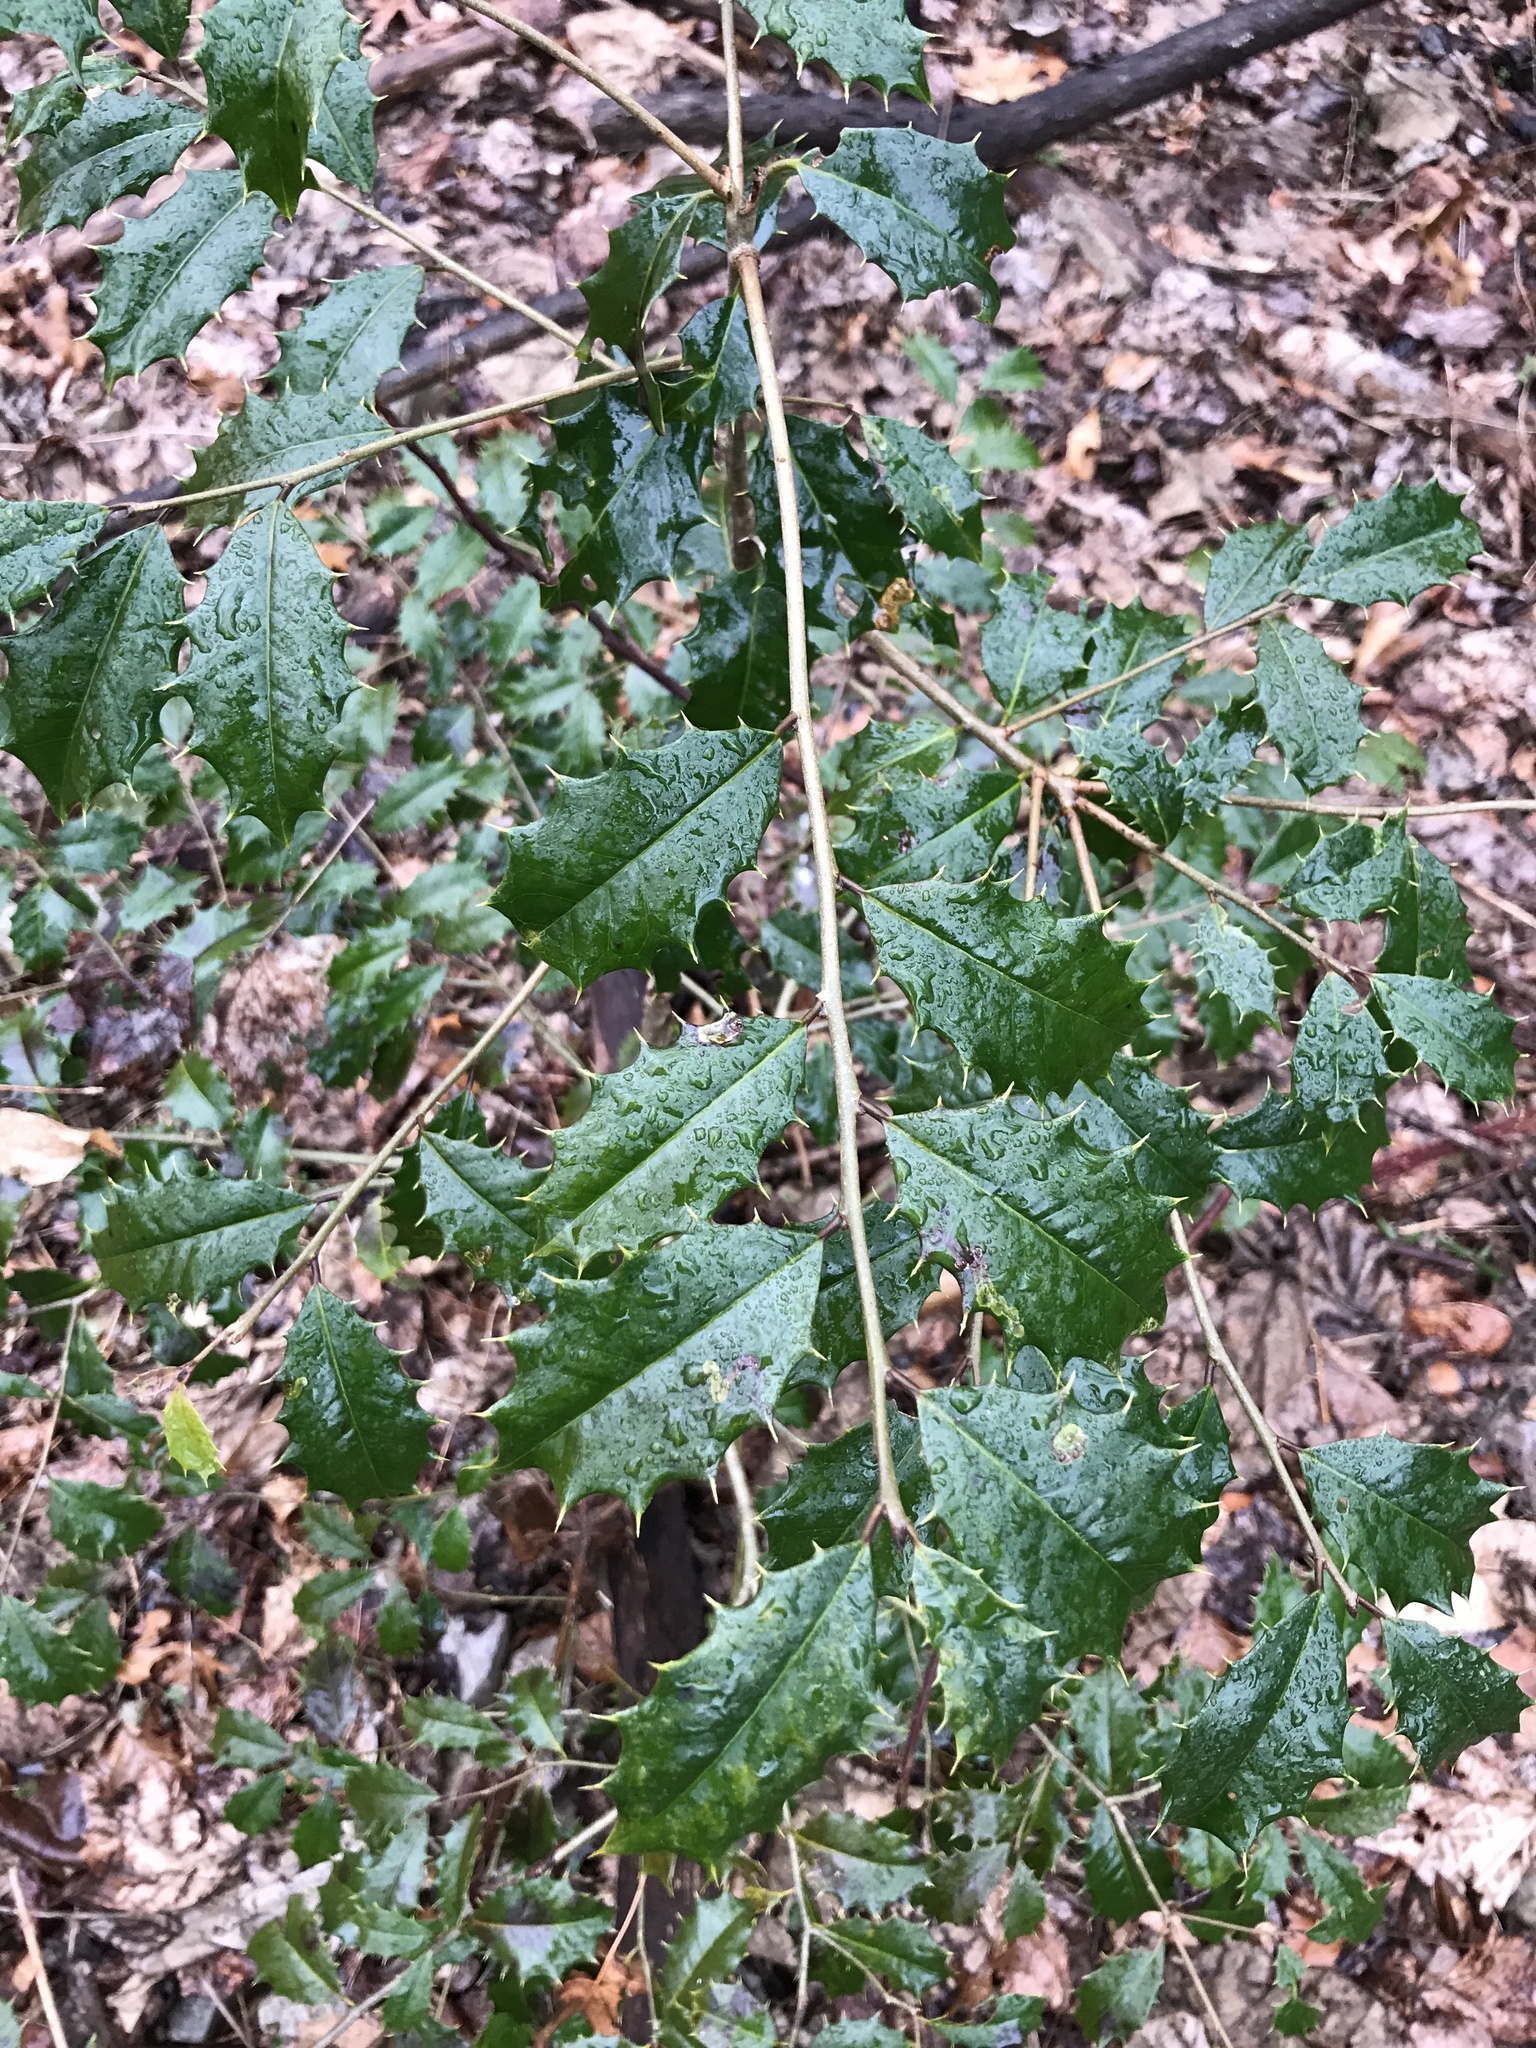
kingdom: Plantae
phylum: Tracheophyta
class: Magnoliopsida
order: Aquifoliales
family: Aquifoliaceae
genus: Ilex
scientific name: Ilex opaca
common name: American holly
